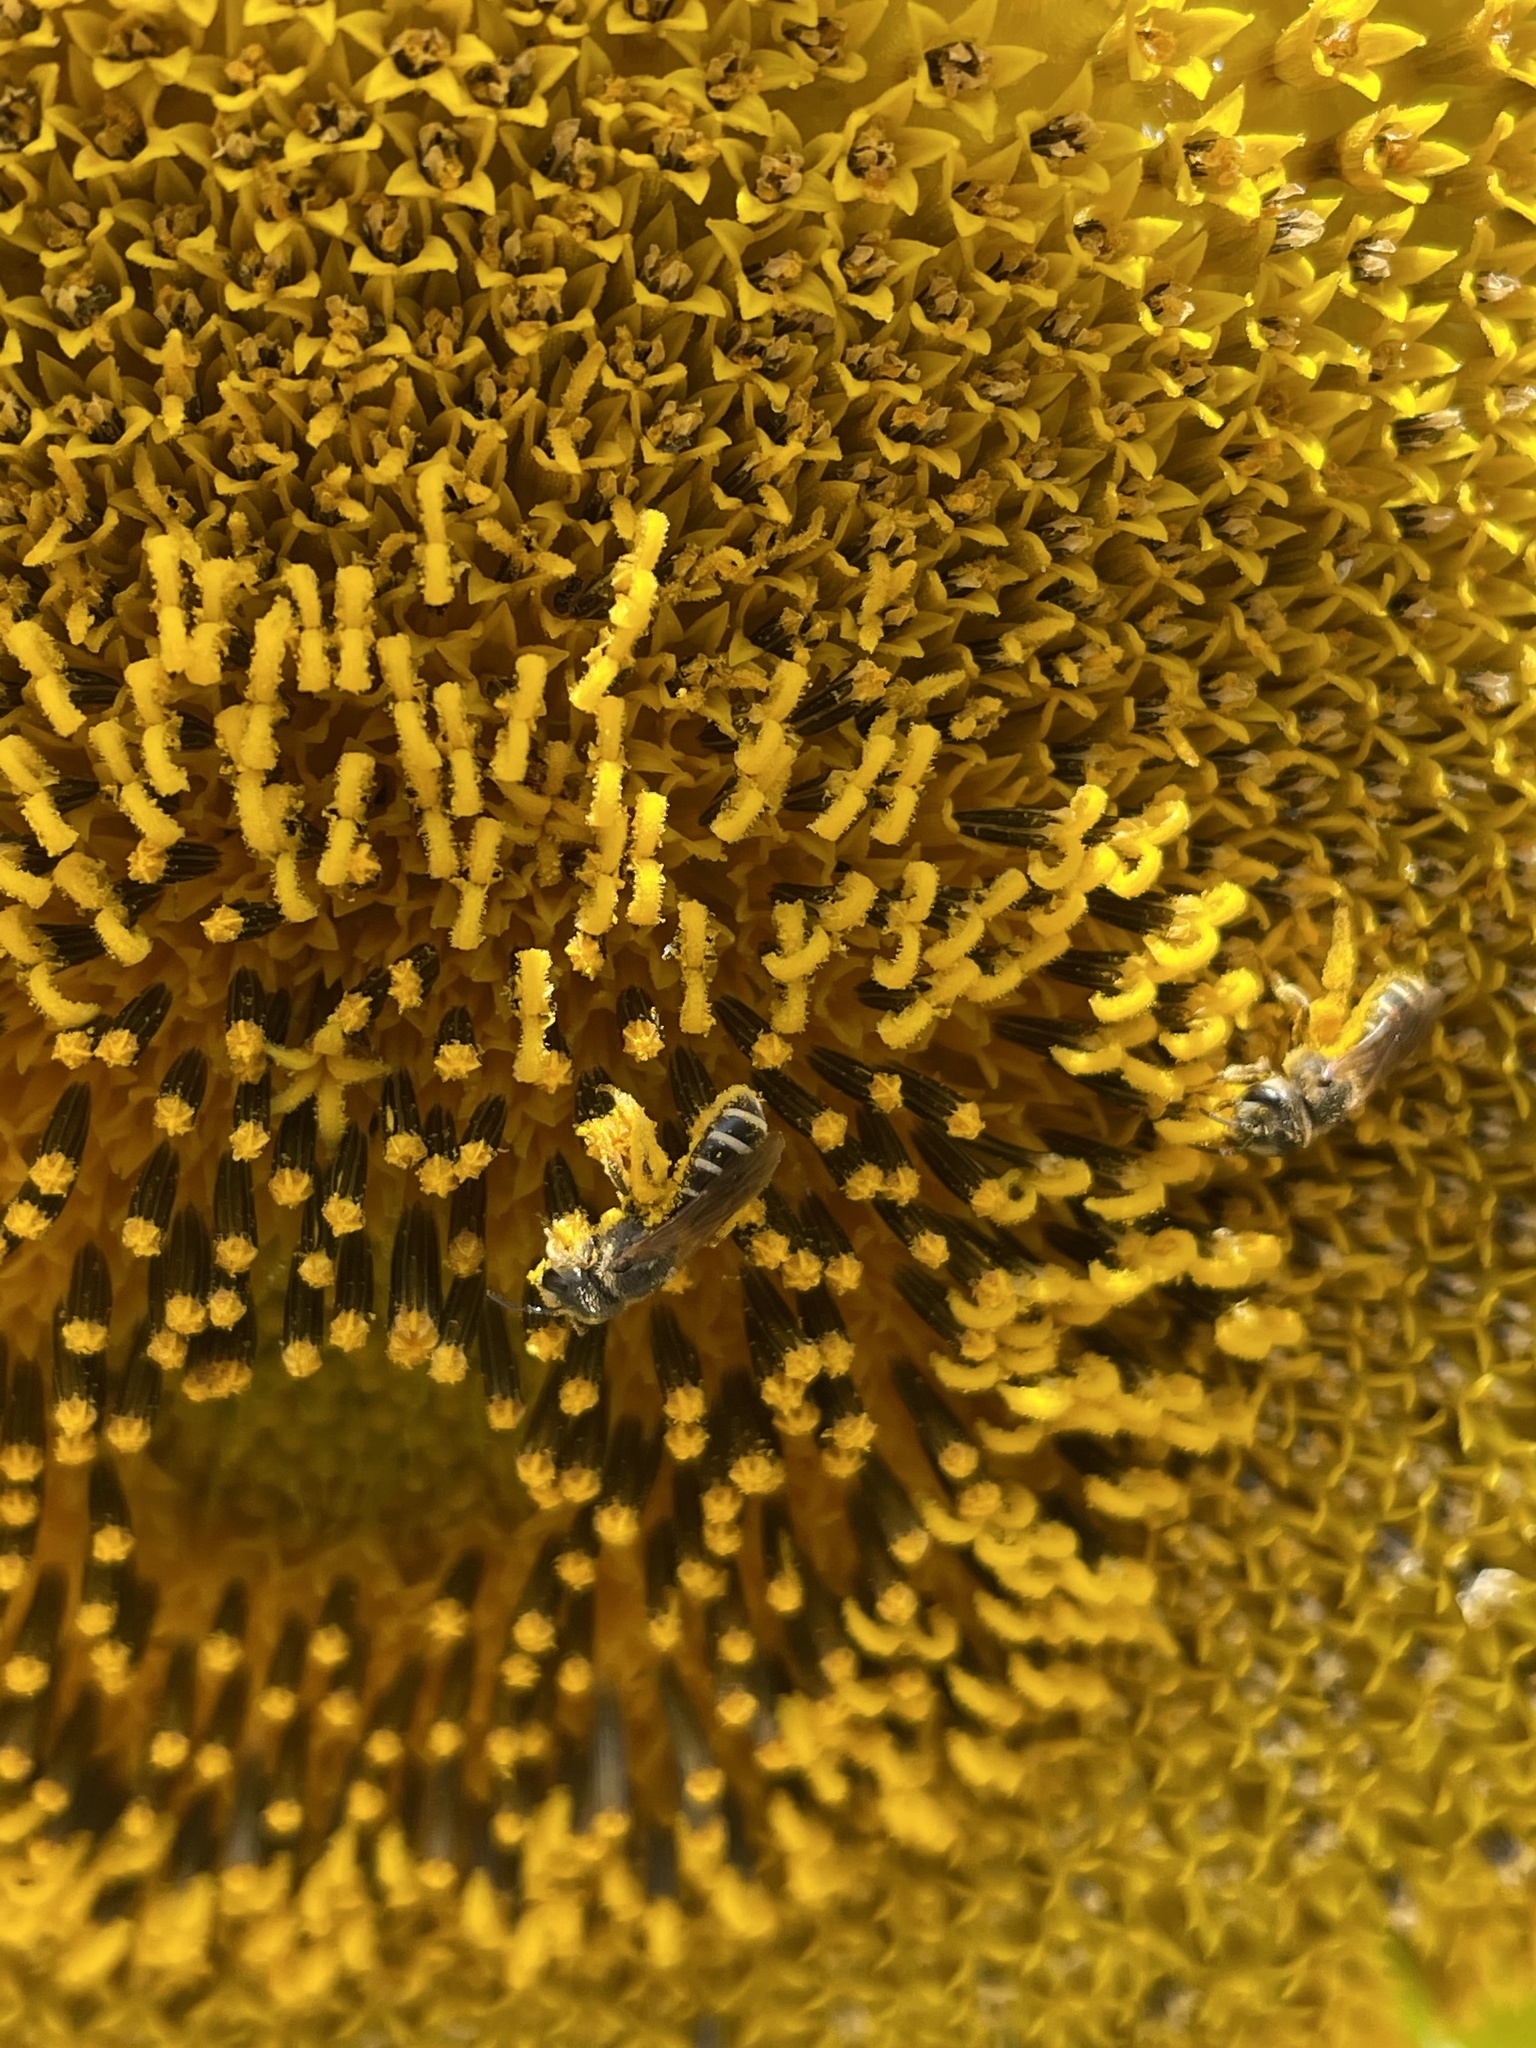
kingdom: Animalia
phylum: Arthropoda
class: Insecta
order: Hymenoptera
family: Halictidae
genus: Halictus
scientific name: Halictus ligatus
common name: Ligated furrow bee
